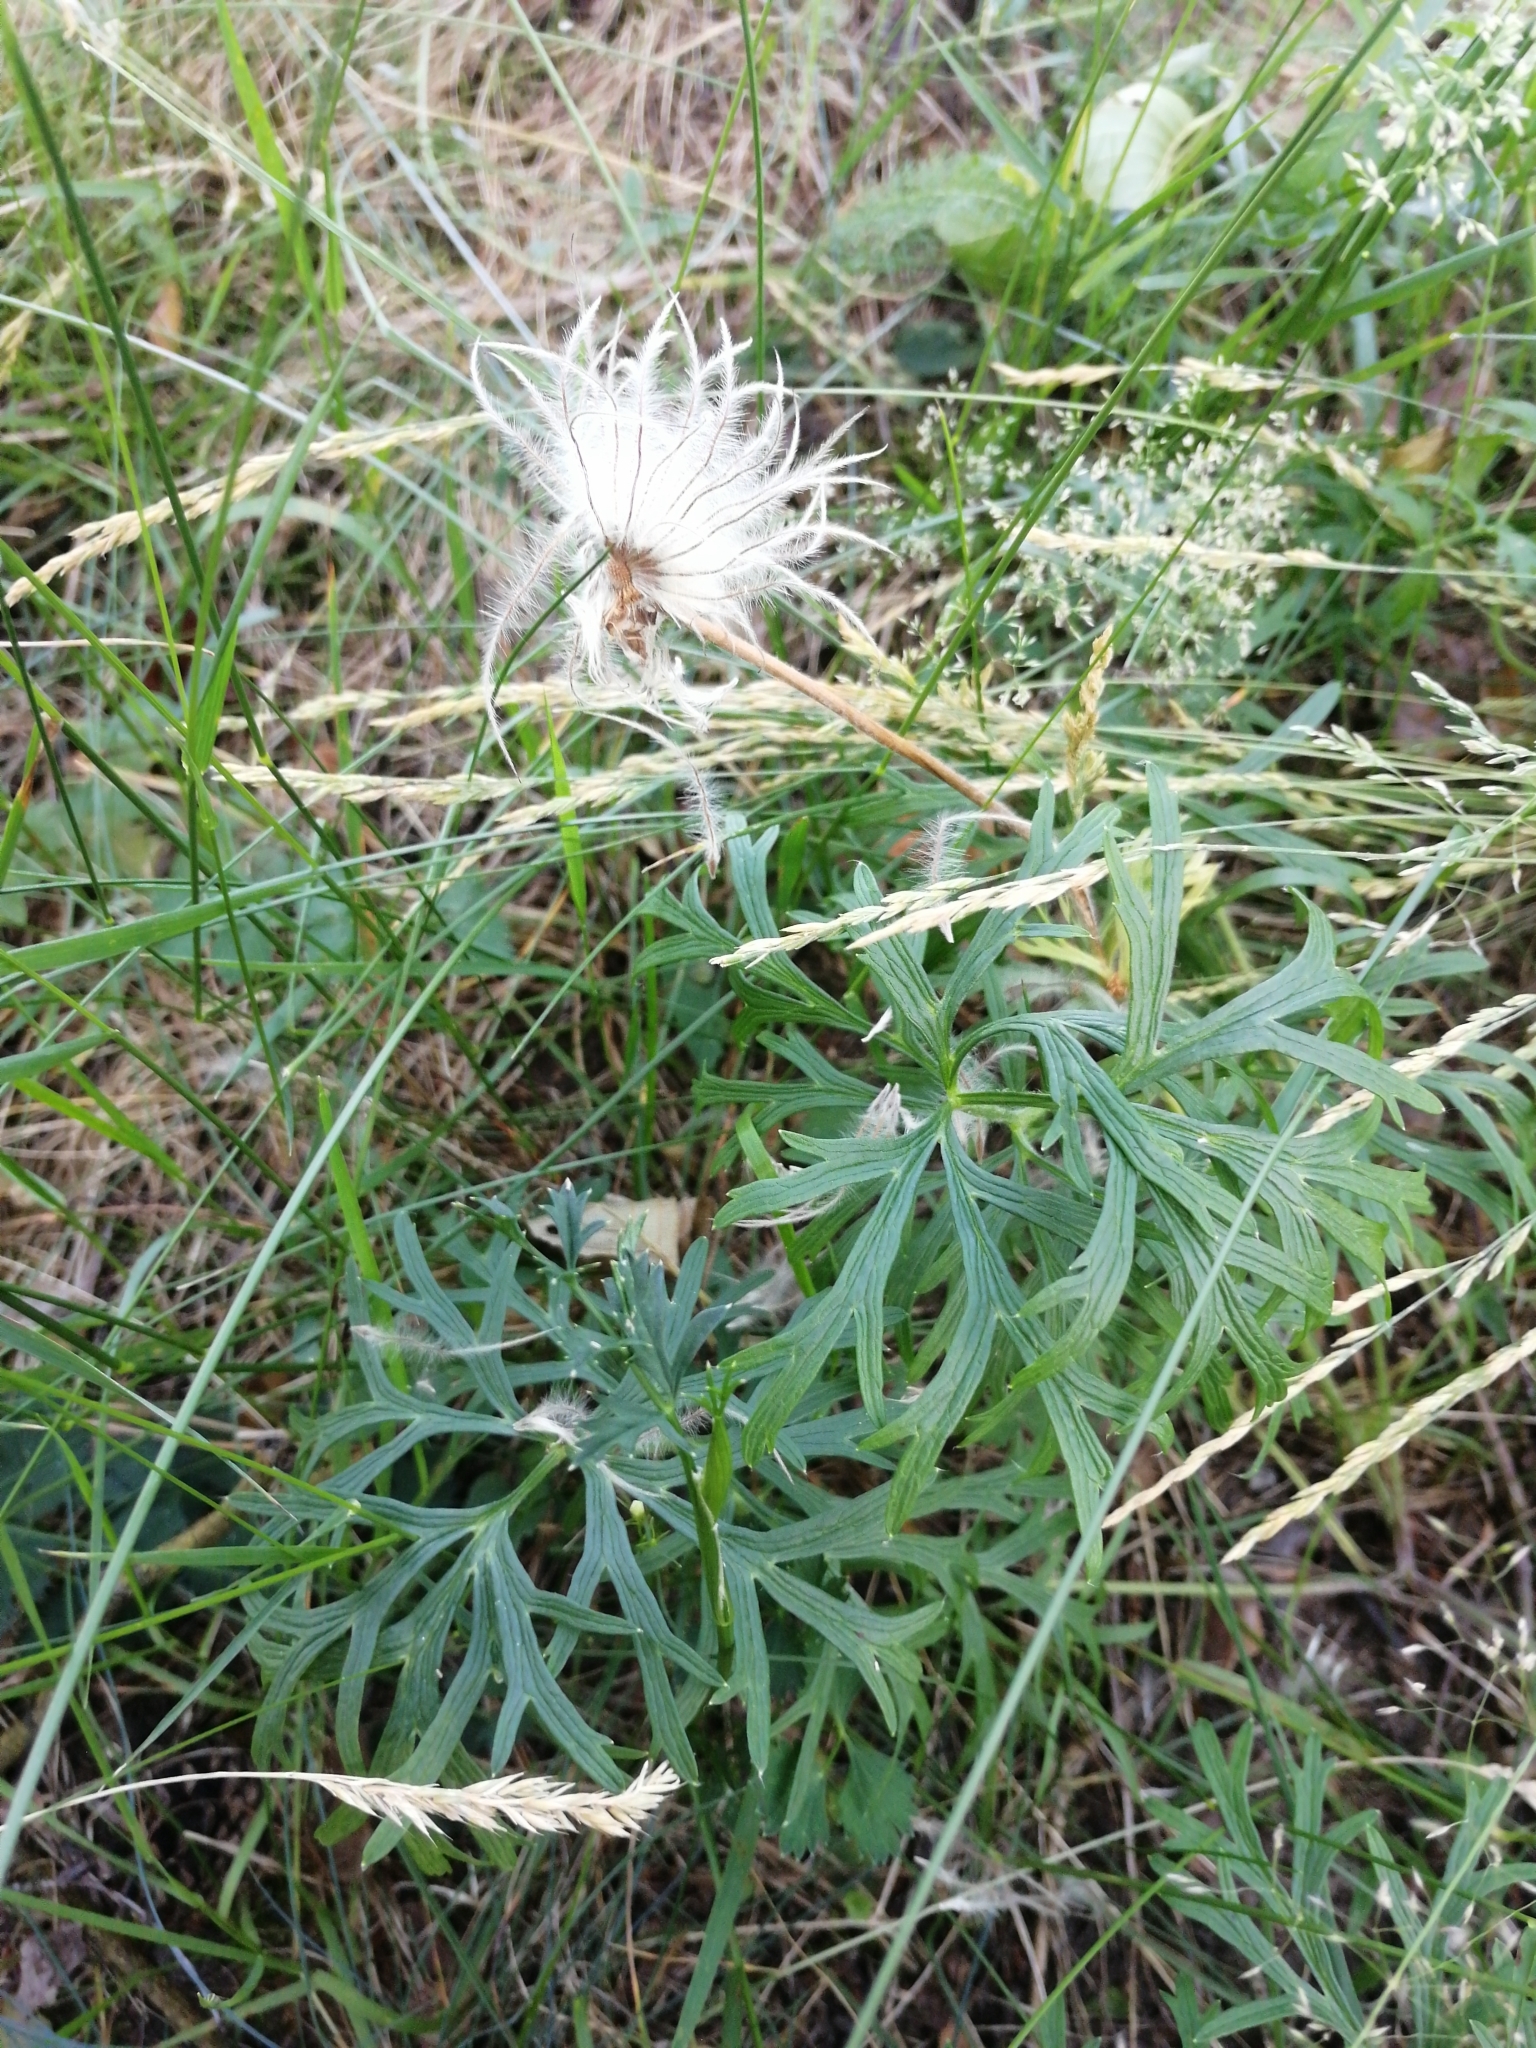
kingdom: Plantae
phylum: Tracheophyta
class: Magnoliopsida
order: Ranunculales
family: Ranunculaceae
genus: Pulsatilla
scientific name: Pulsatilla patens
